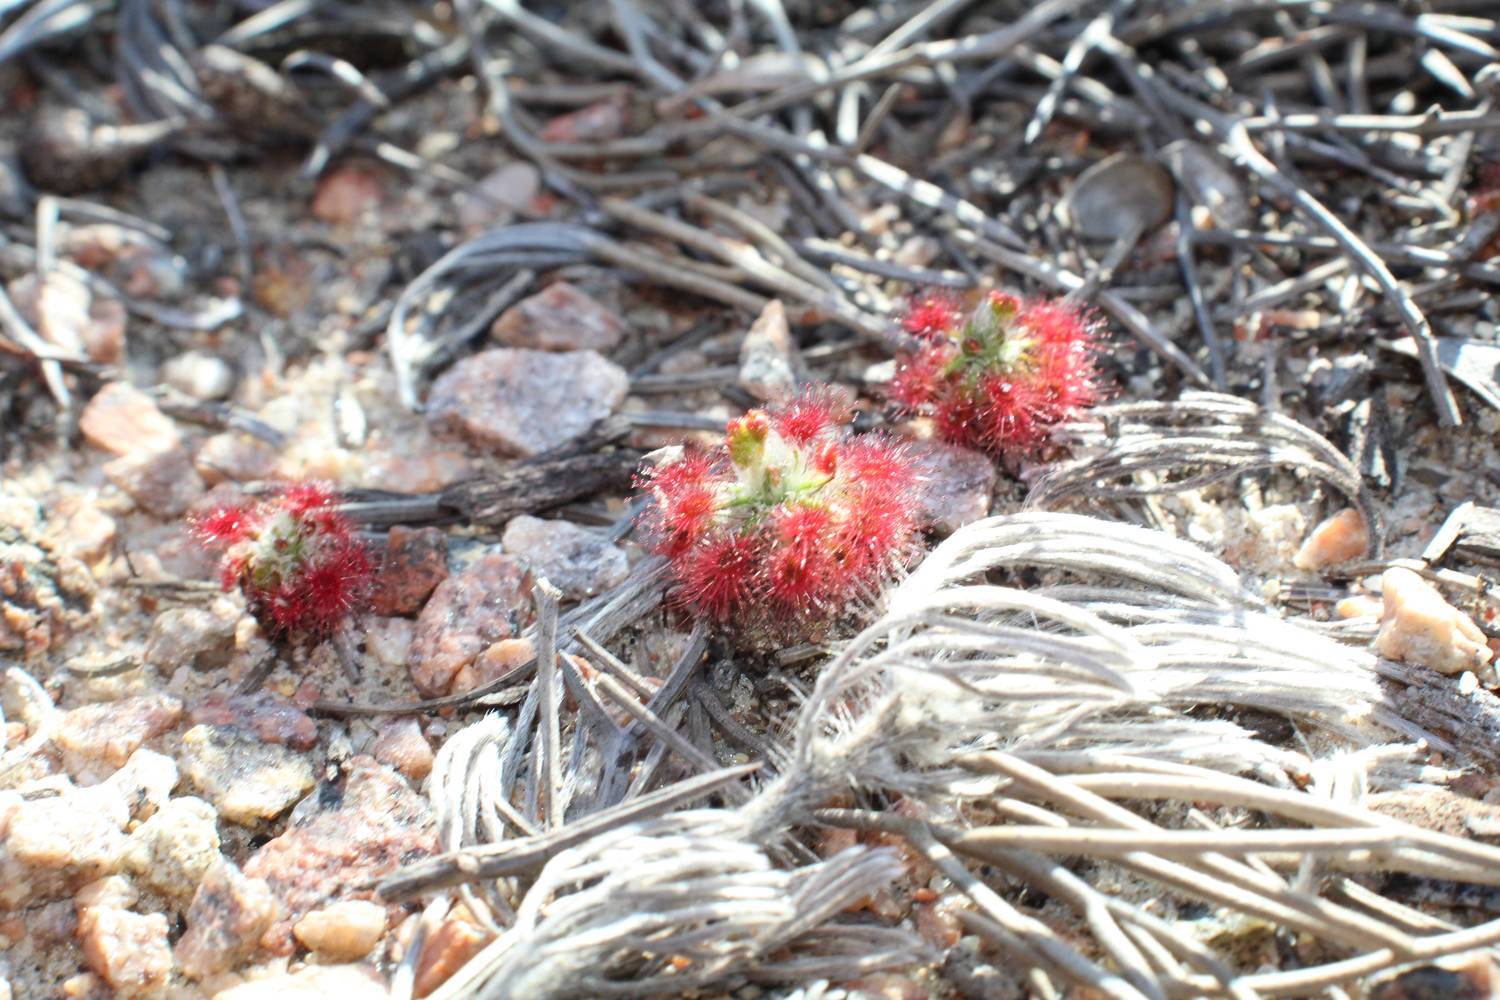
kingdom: Plantae
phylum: Tracheophyta
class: Magnoliopsida
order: Caryophyllales
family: Droseraceae
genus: Drosera
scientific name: Drosera paleacea
